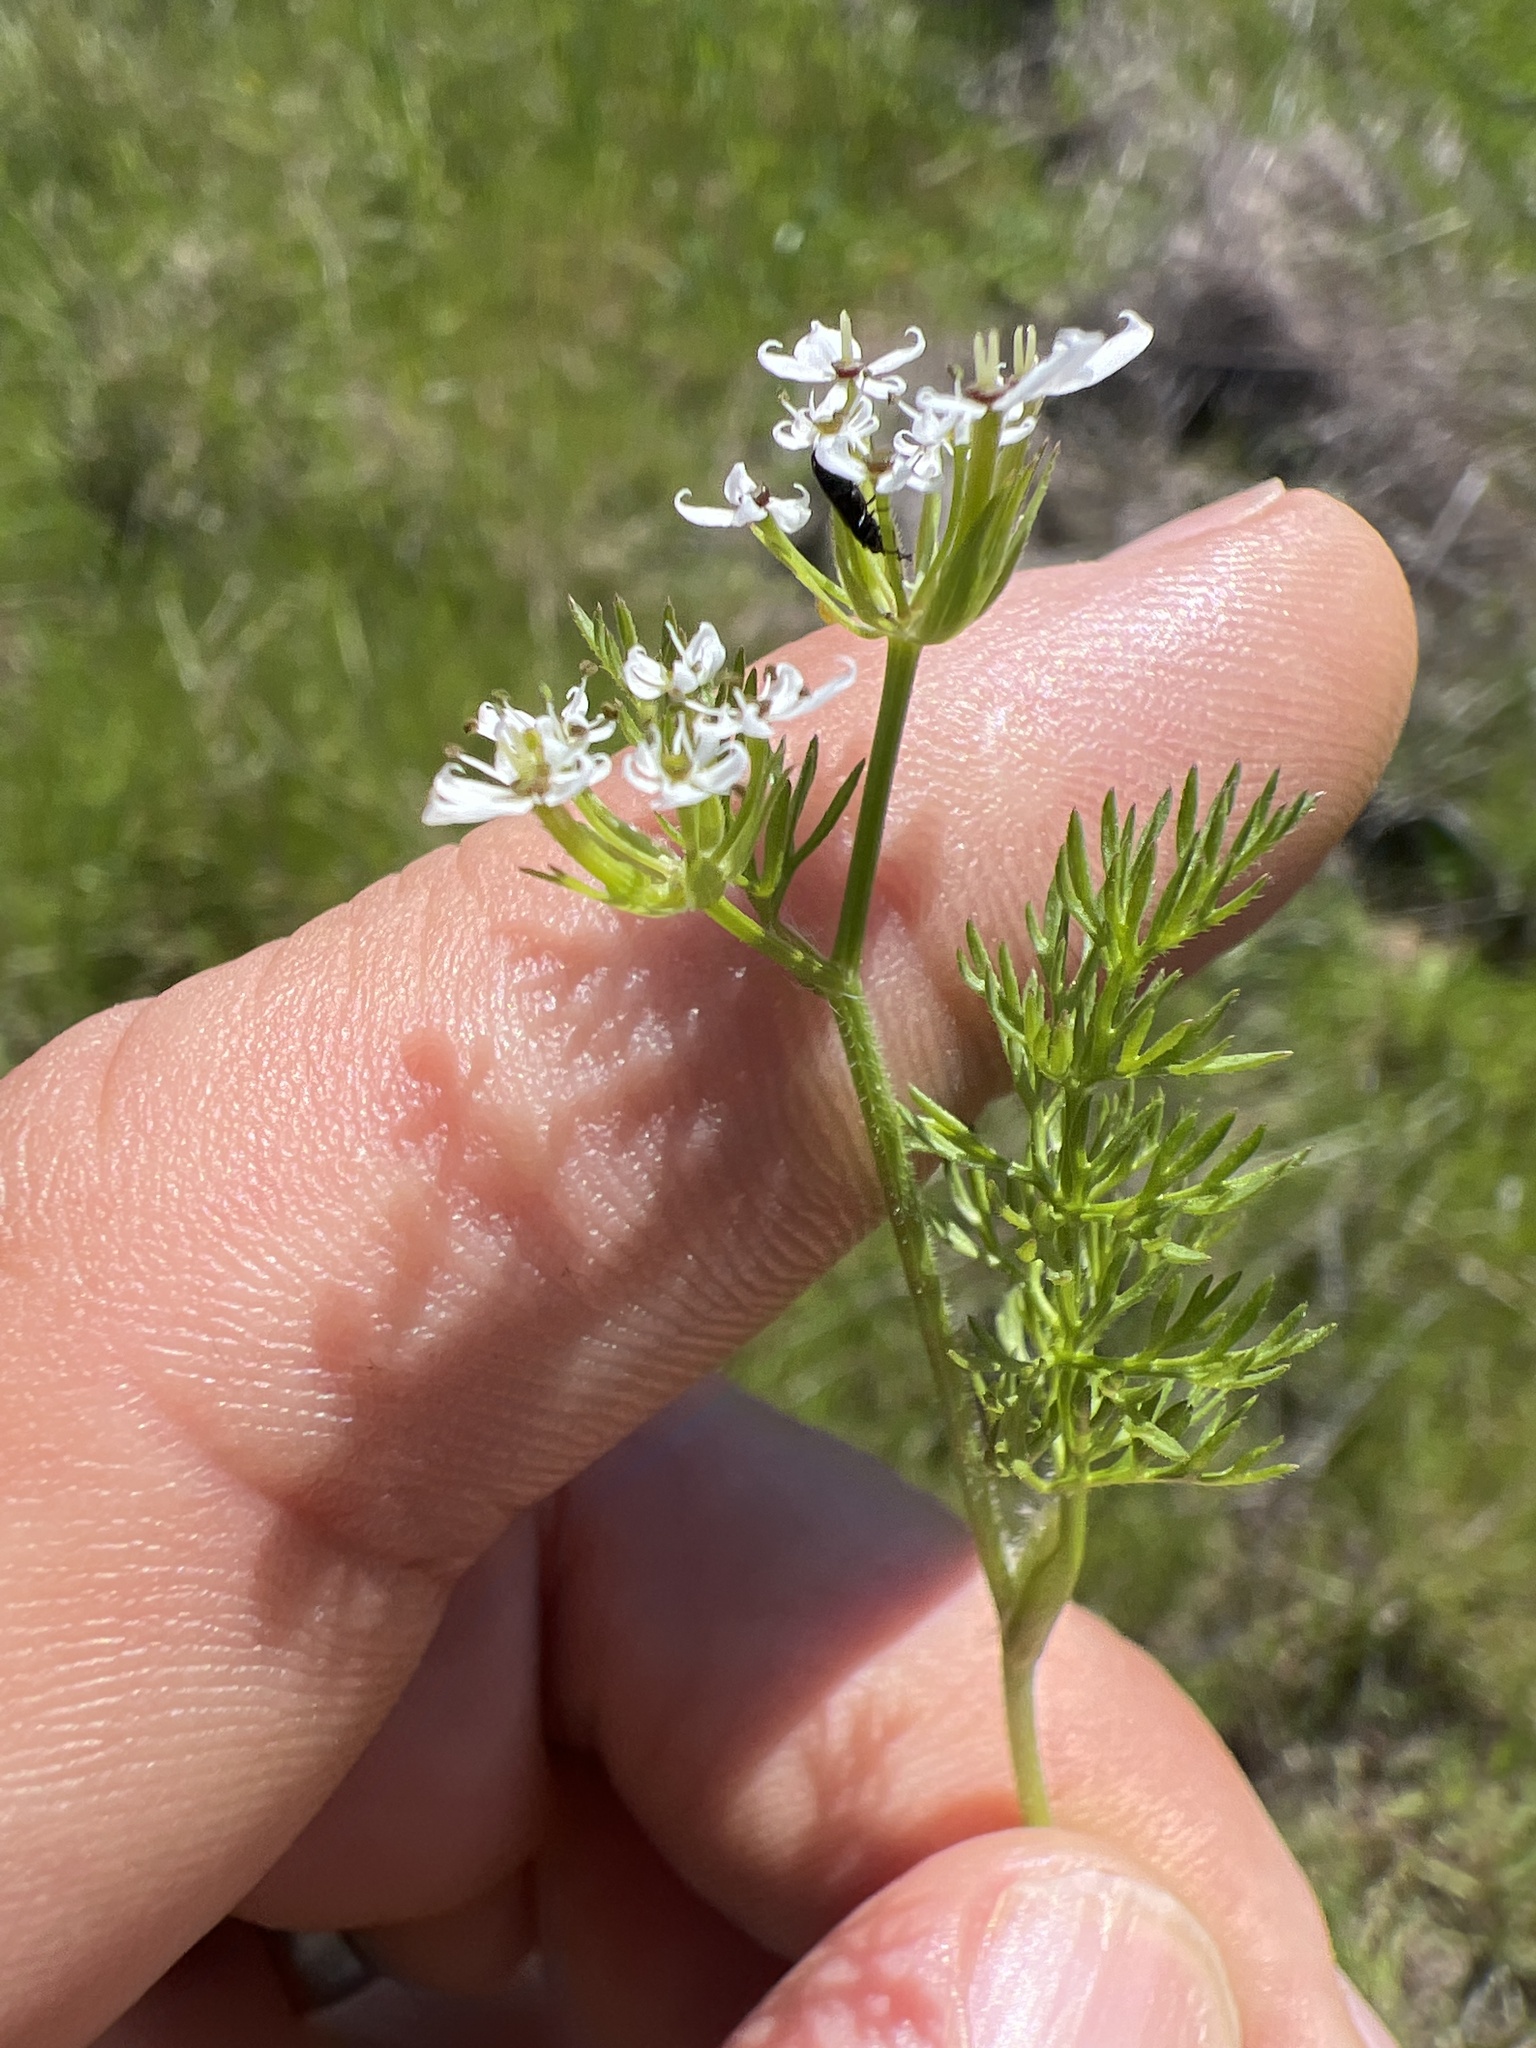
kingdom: Plantae
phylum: Tracheophyta
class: Magnoliopsida
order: Apiales
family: Apiaceae
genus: Scandix
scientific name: Scandix pecten-veneris
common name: Shepherd's-needle
